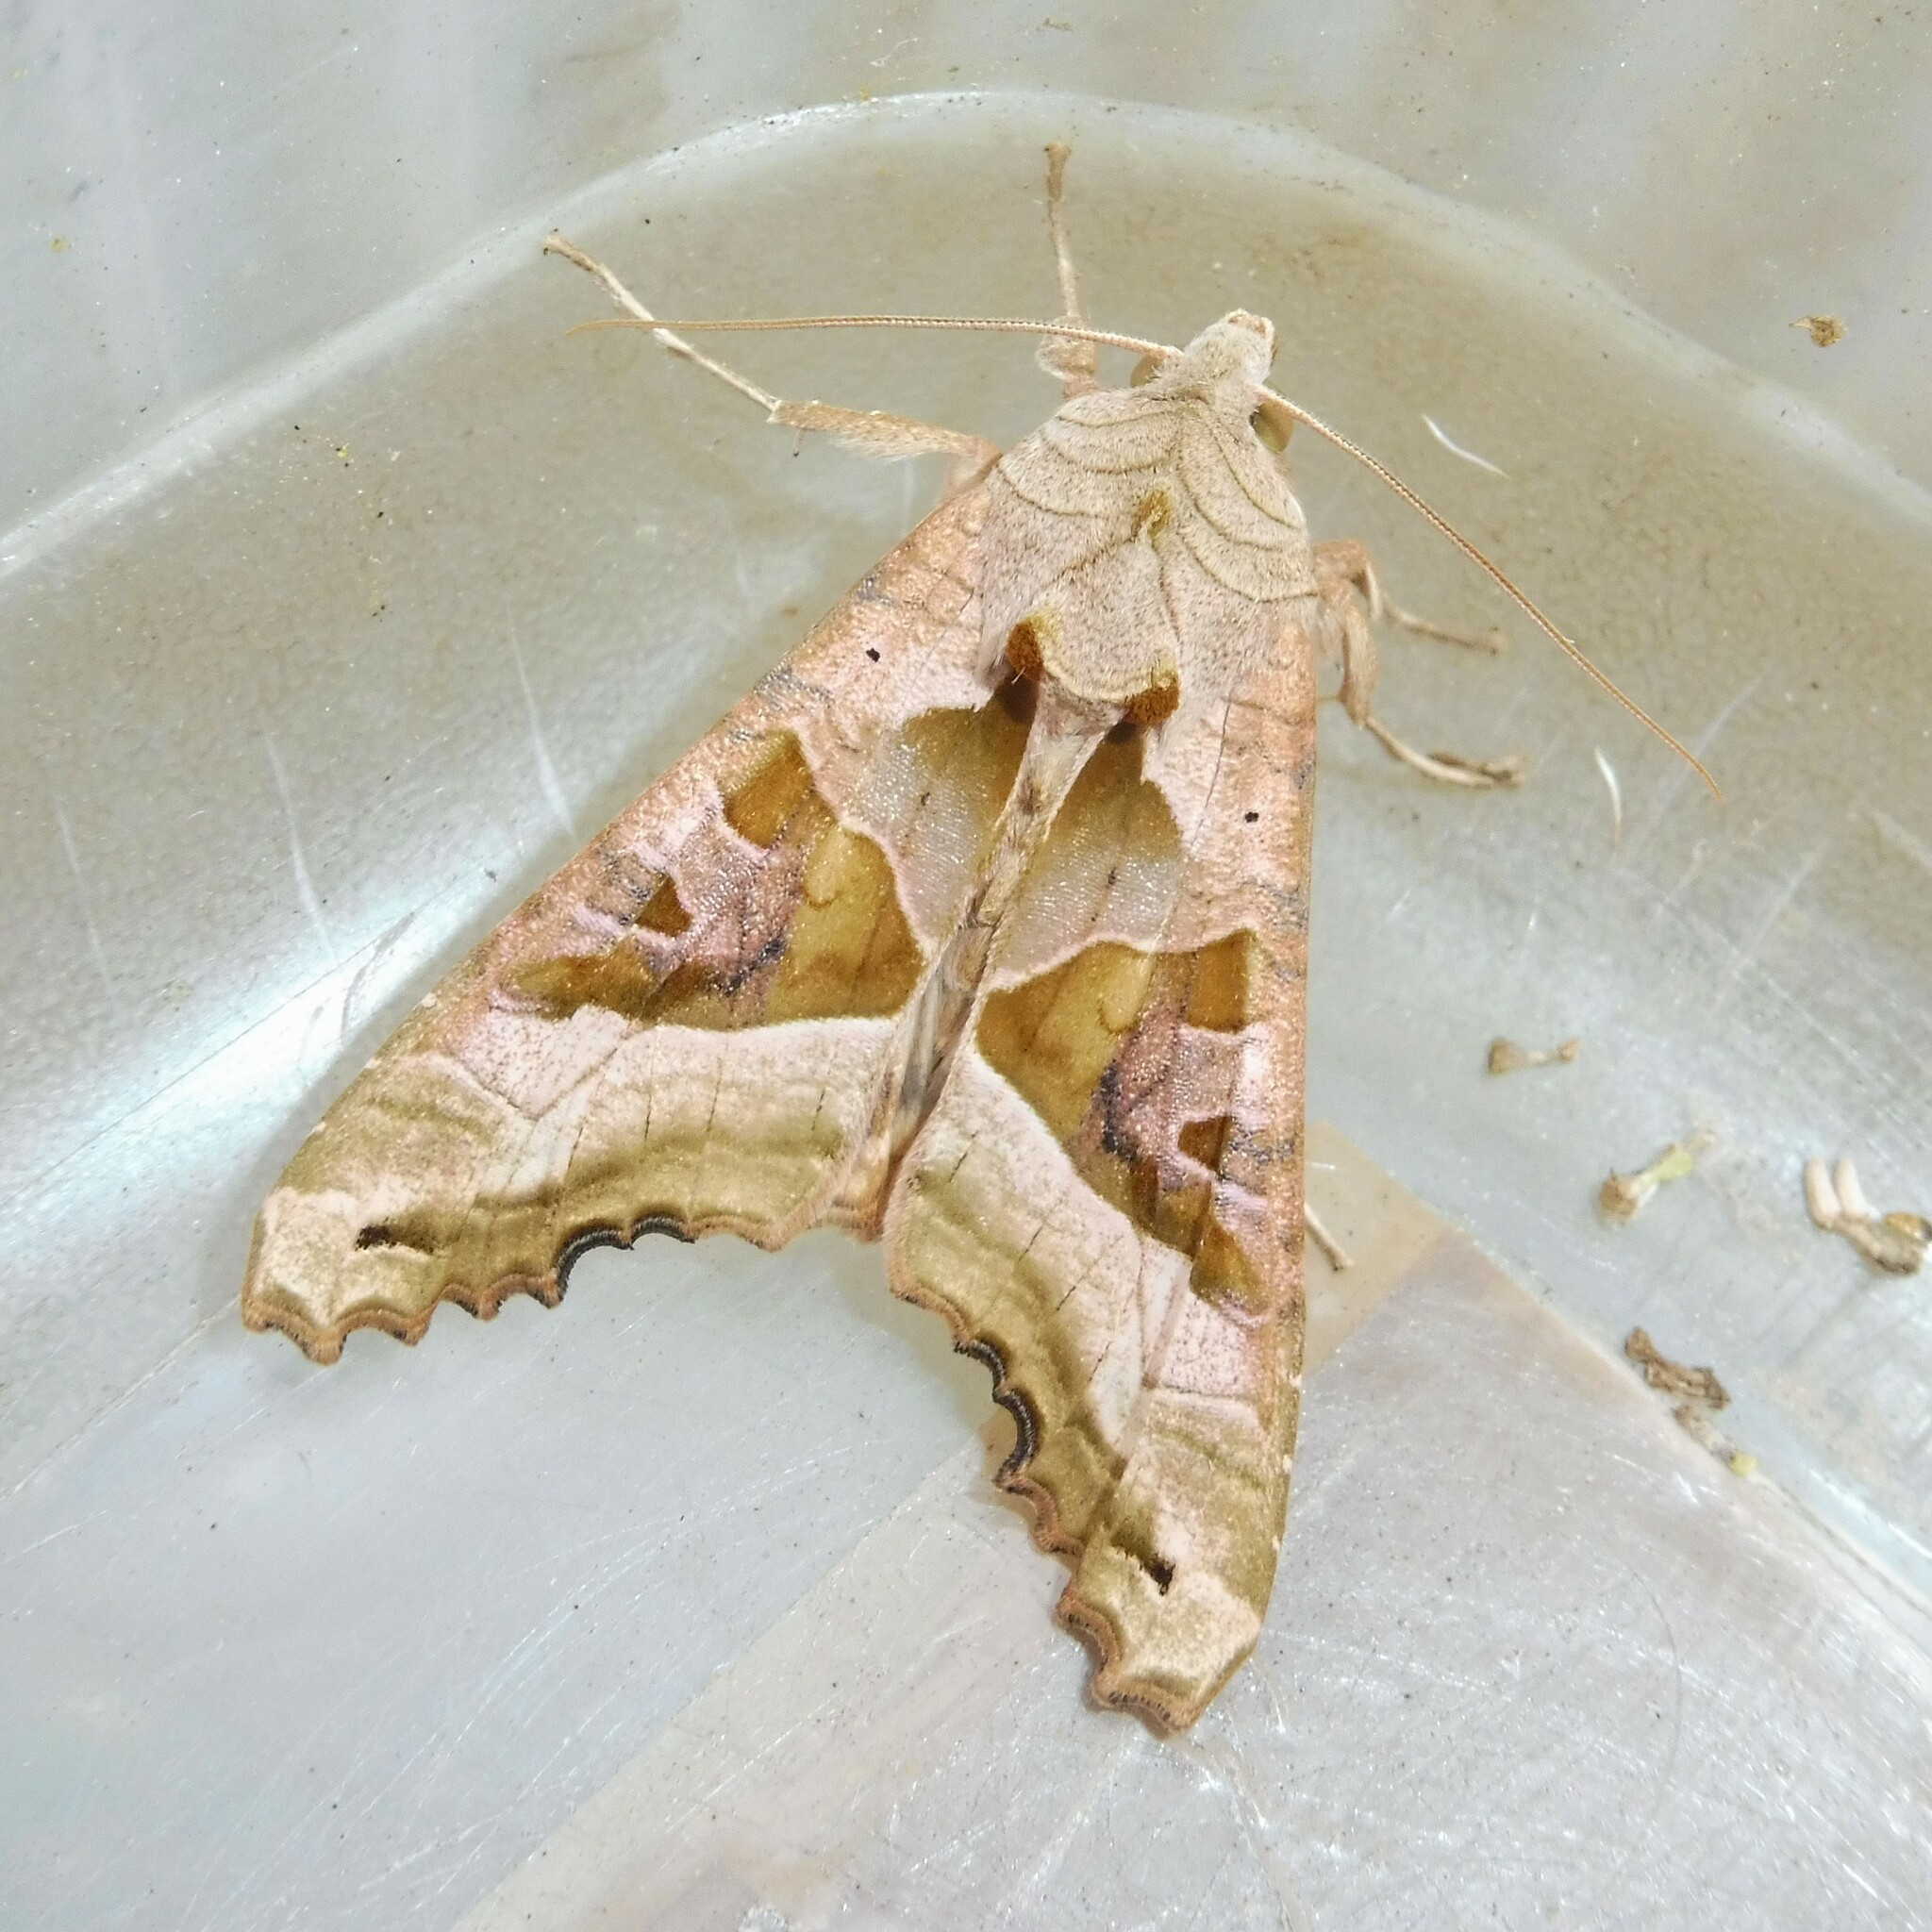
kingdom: Animalia
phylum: Arthropoda
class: Insecta
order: Lepidoptera
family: Noctuidae
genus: Phlogophora
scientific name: Phlogophora meticulosa
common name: Angle shades
